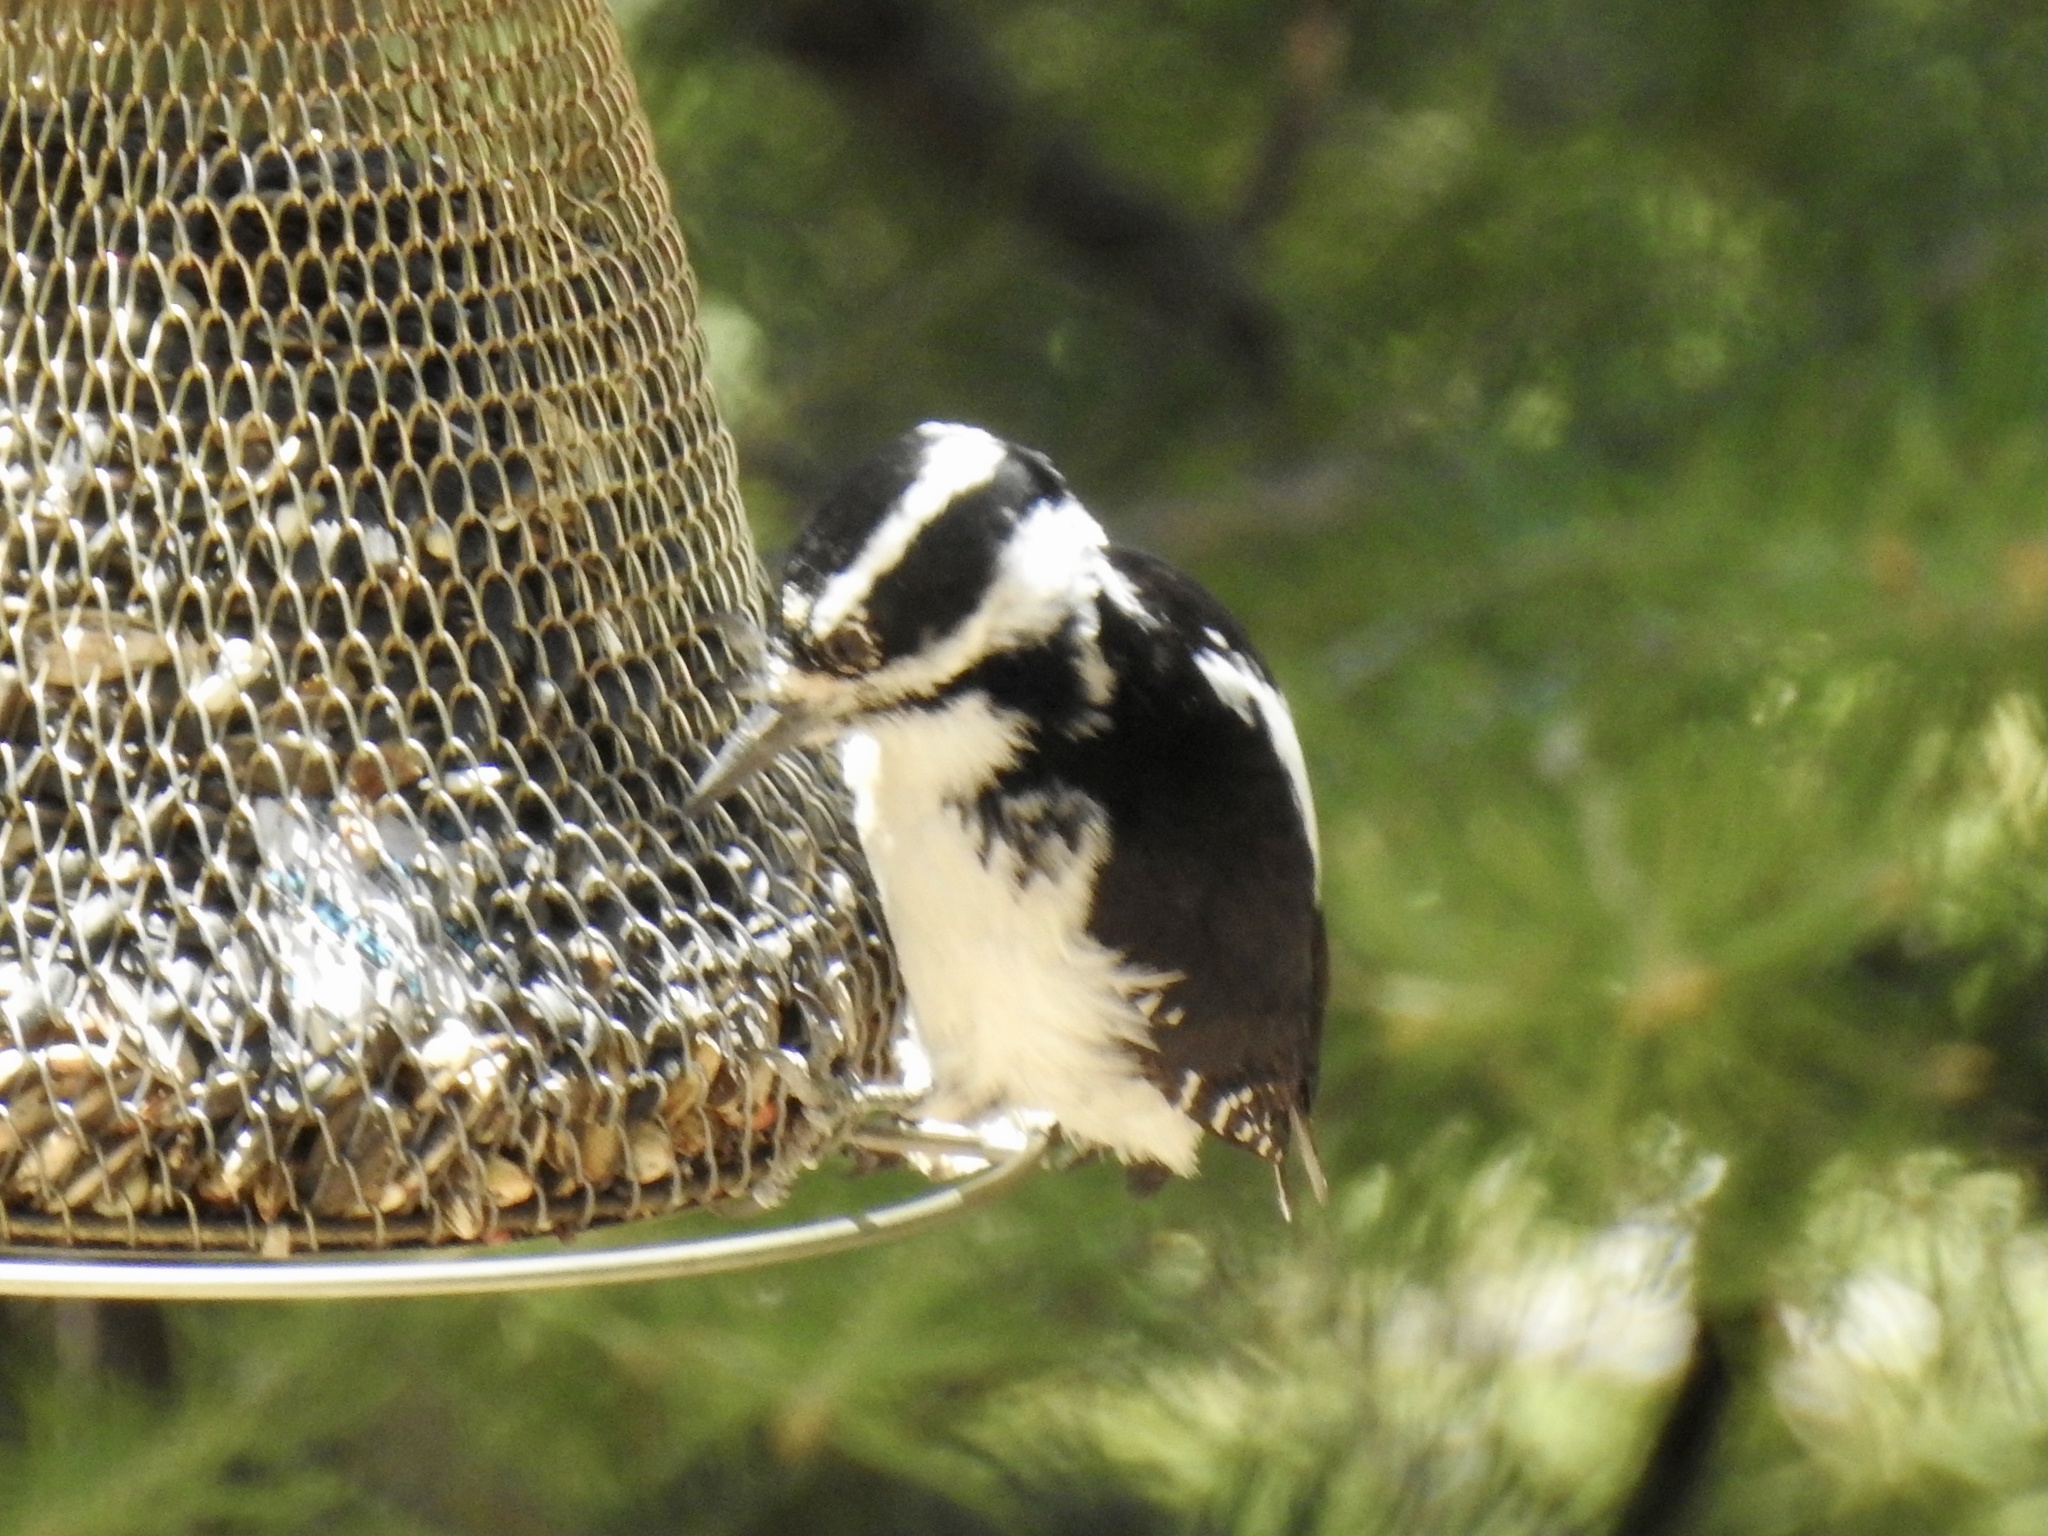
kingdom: Animalia
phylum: Chordata
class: Aves
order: Piciformes
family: Picidae
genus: Dryobates
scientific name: Dryobates pubescens
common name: Downy woodpecker
